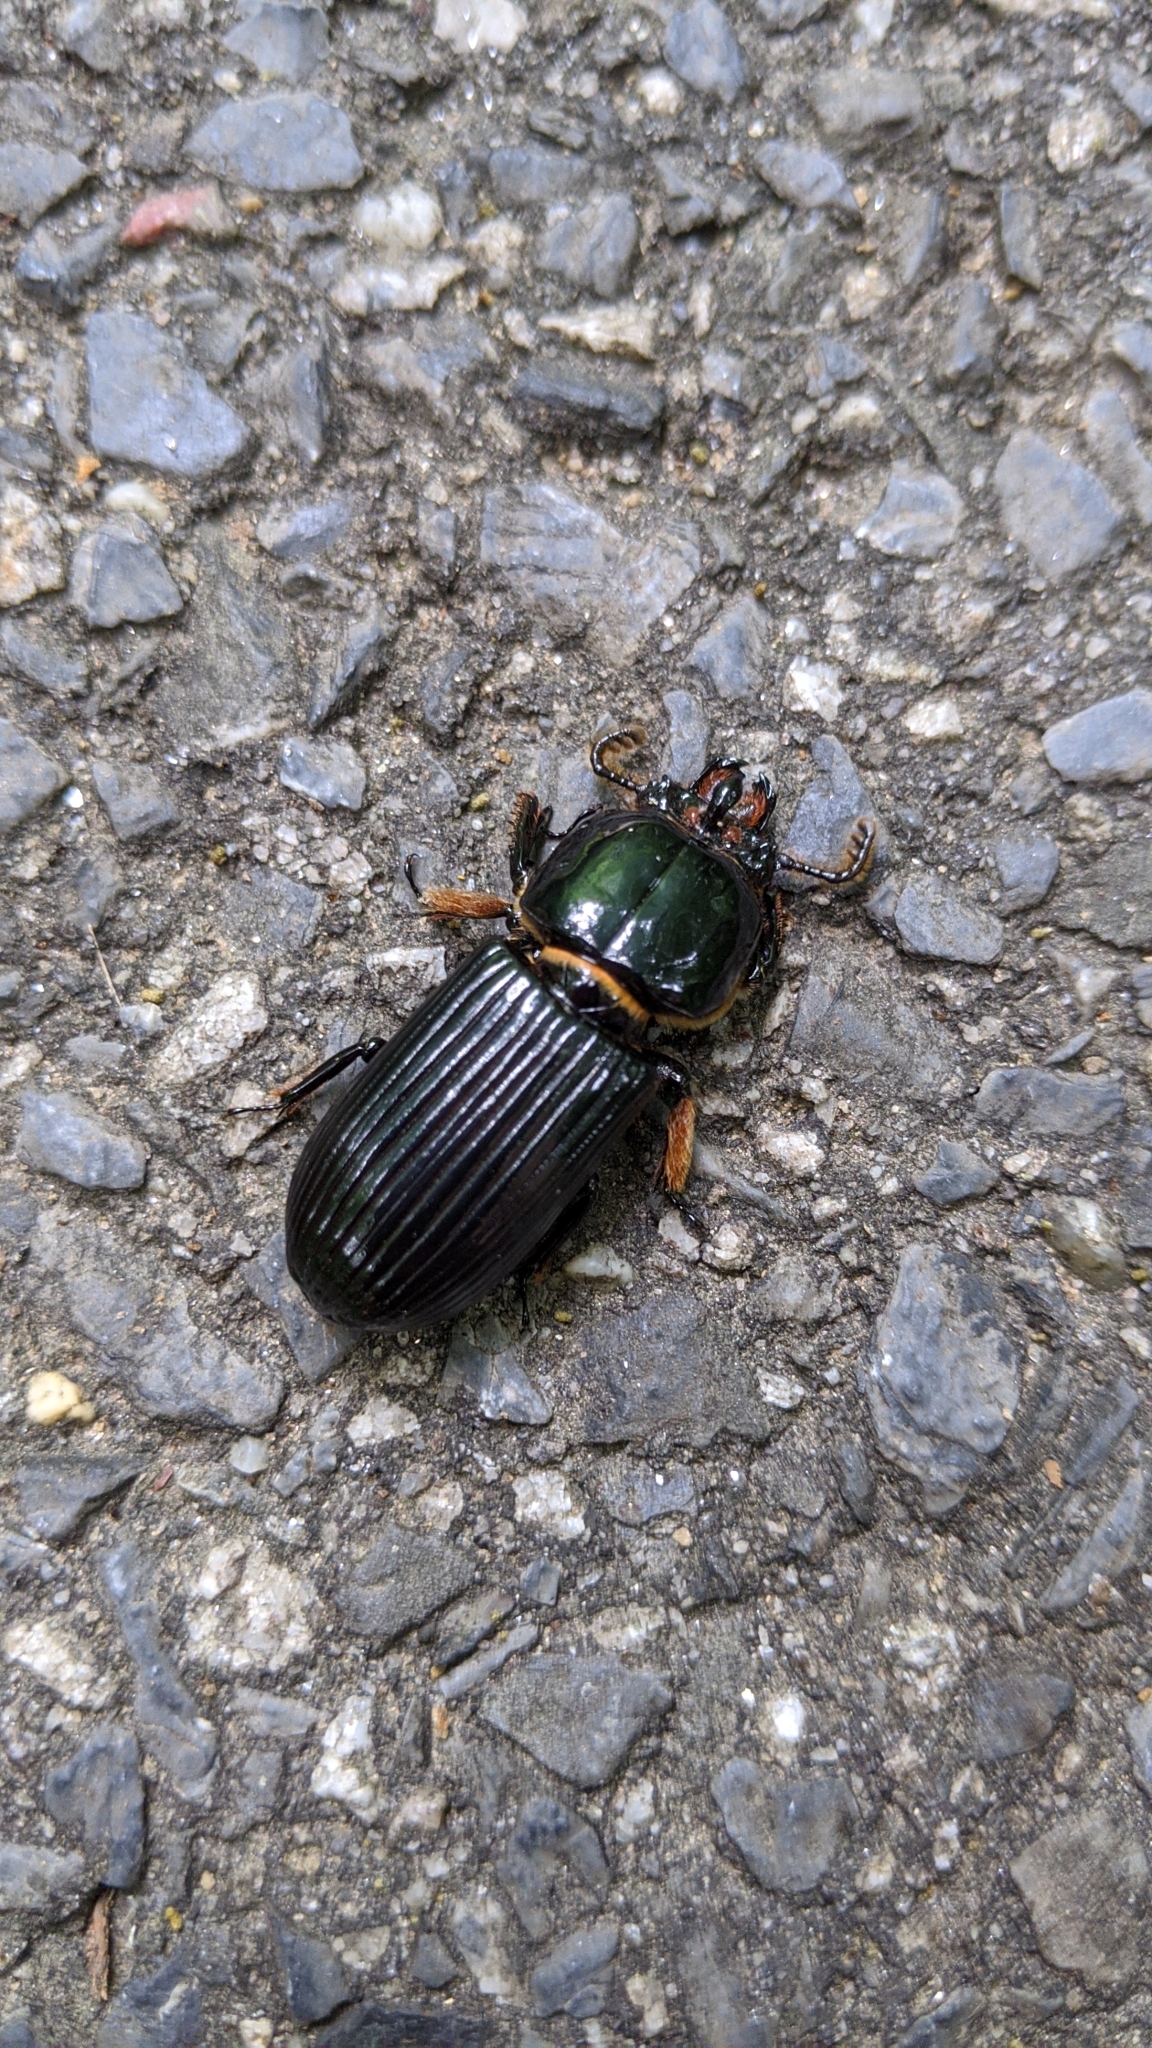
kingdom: Animalia
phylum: Arthropoda
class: Insecta
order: Coleoptera
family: Passalidae
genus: Odontotaenius
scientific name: Odontotaenius disjunctus
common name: Patent leather beetle
